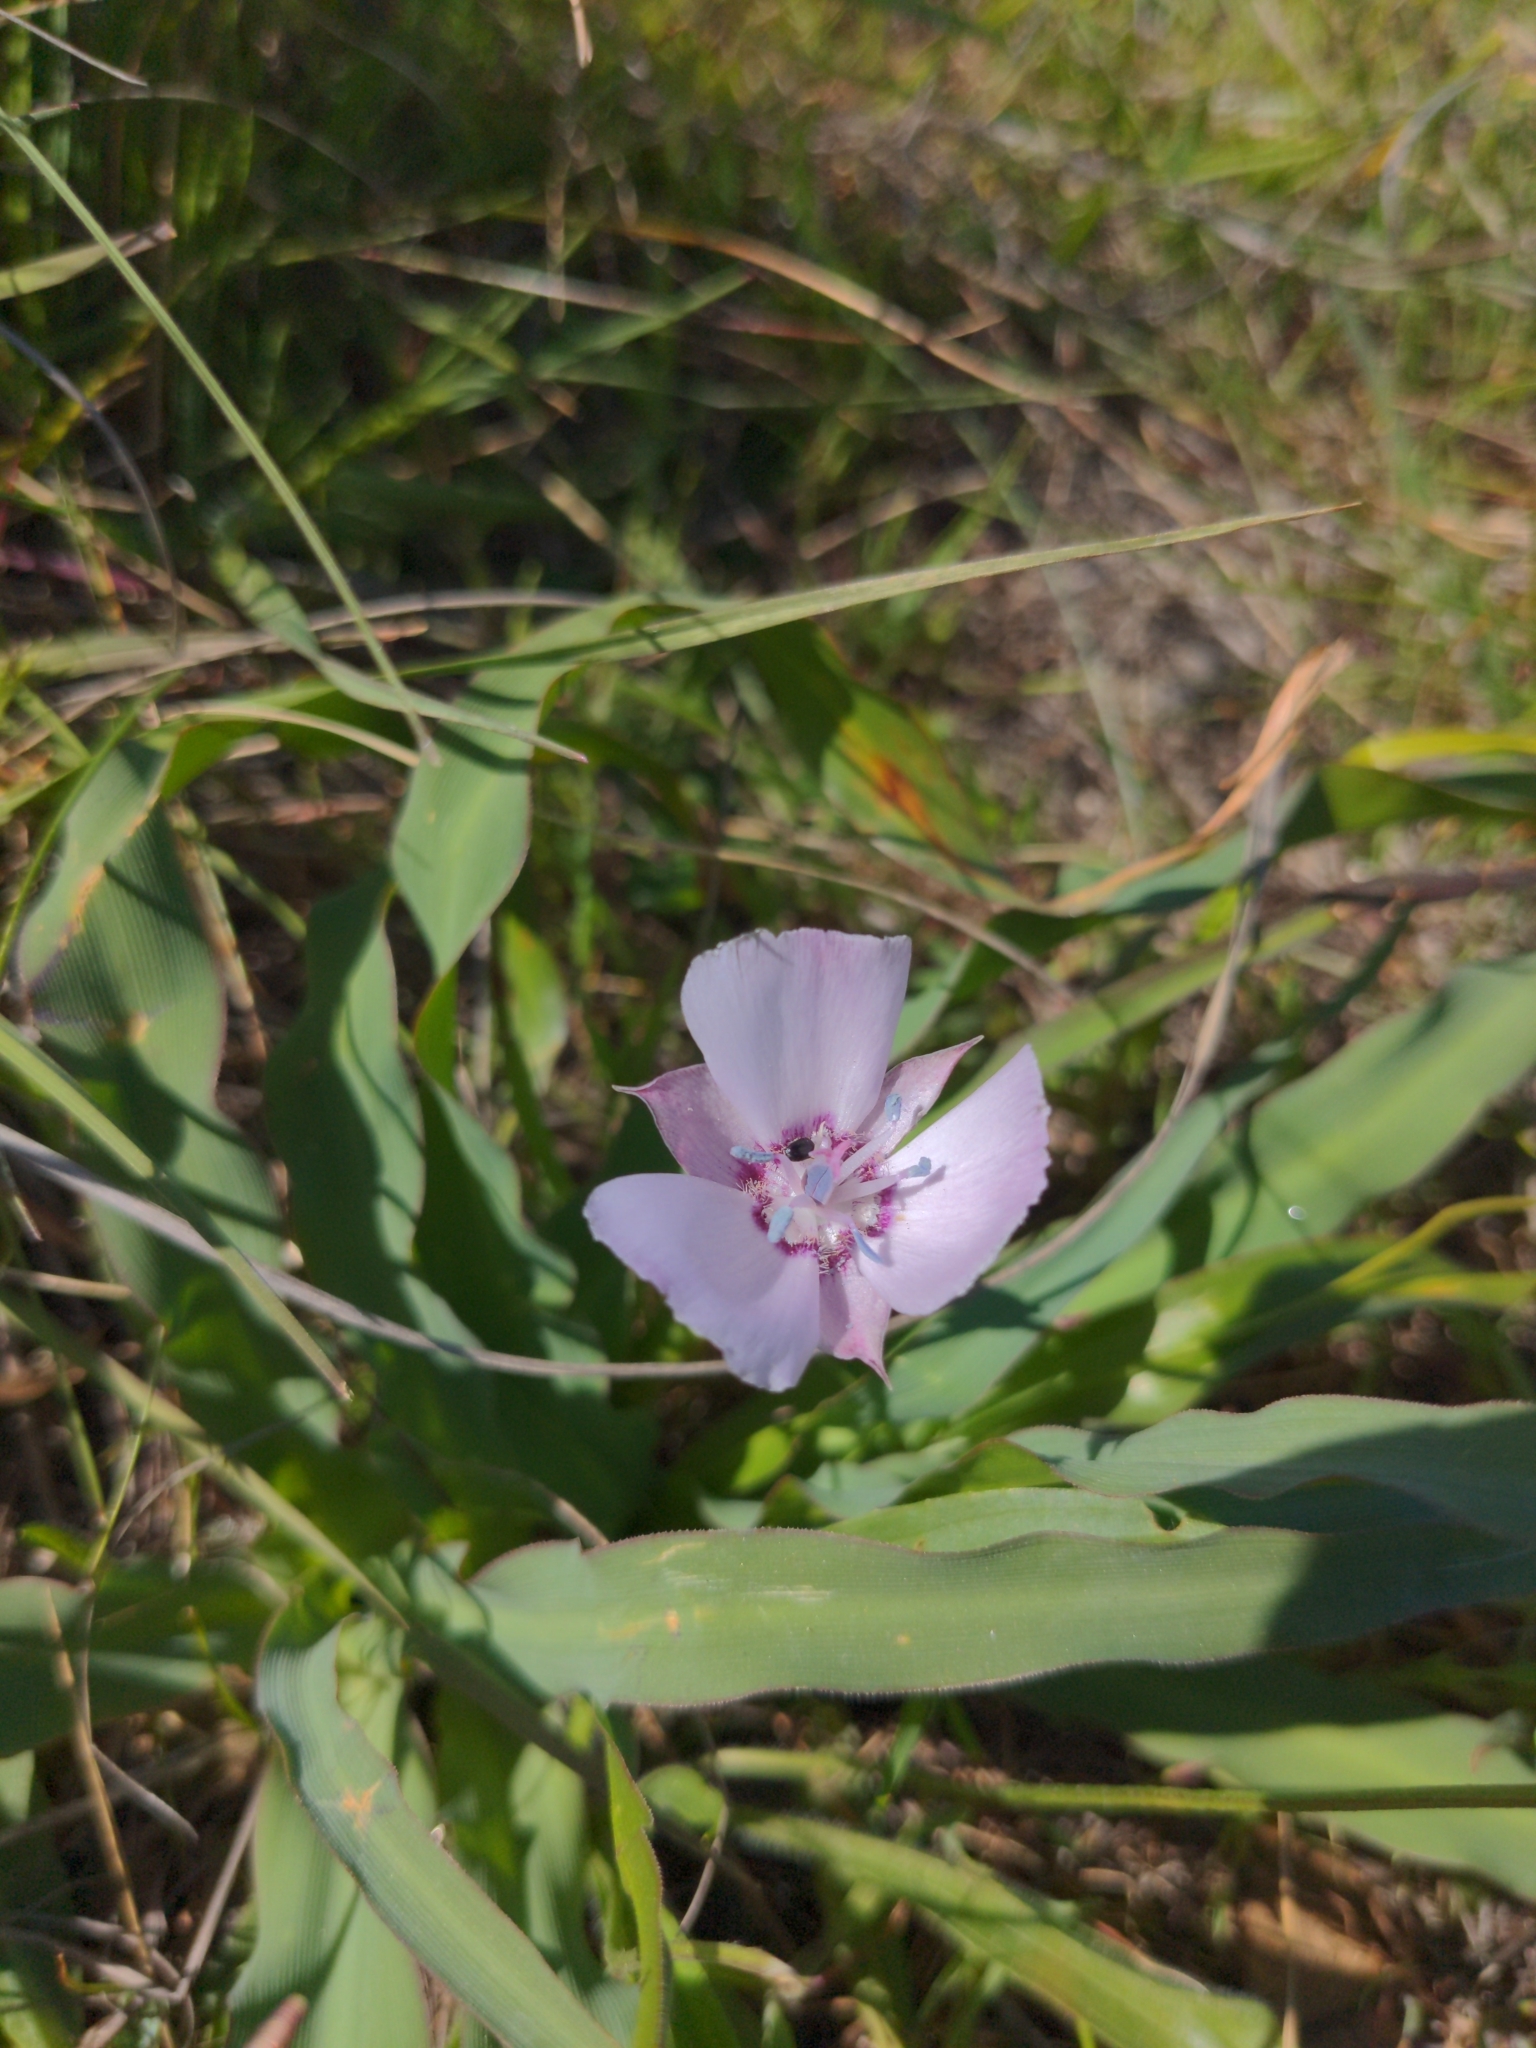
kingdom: Plantae
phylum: Tracheophyta
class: Liliopsida
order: Liliales
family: Liliaceae
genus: Calochortus
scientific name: Calochortus umbellatus
